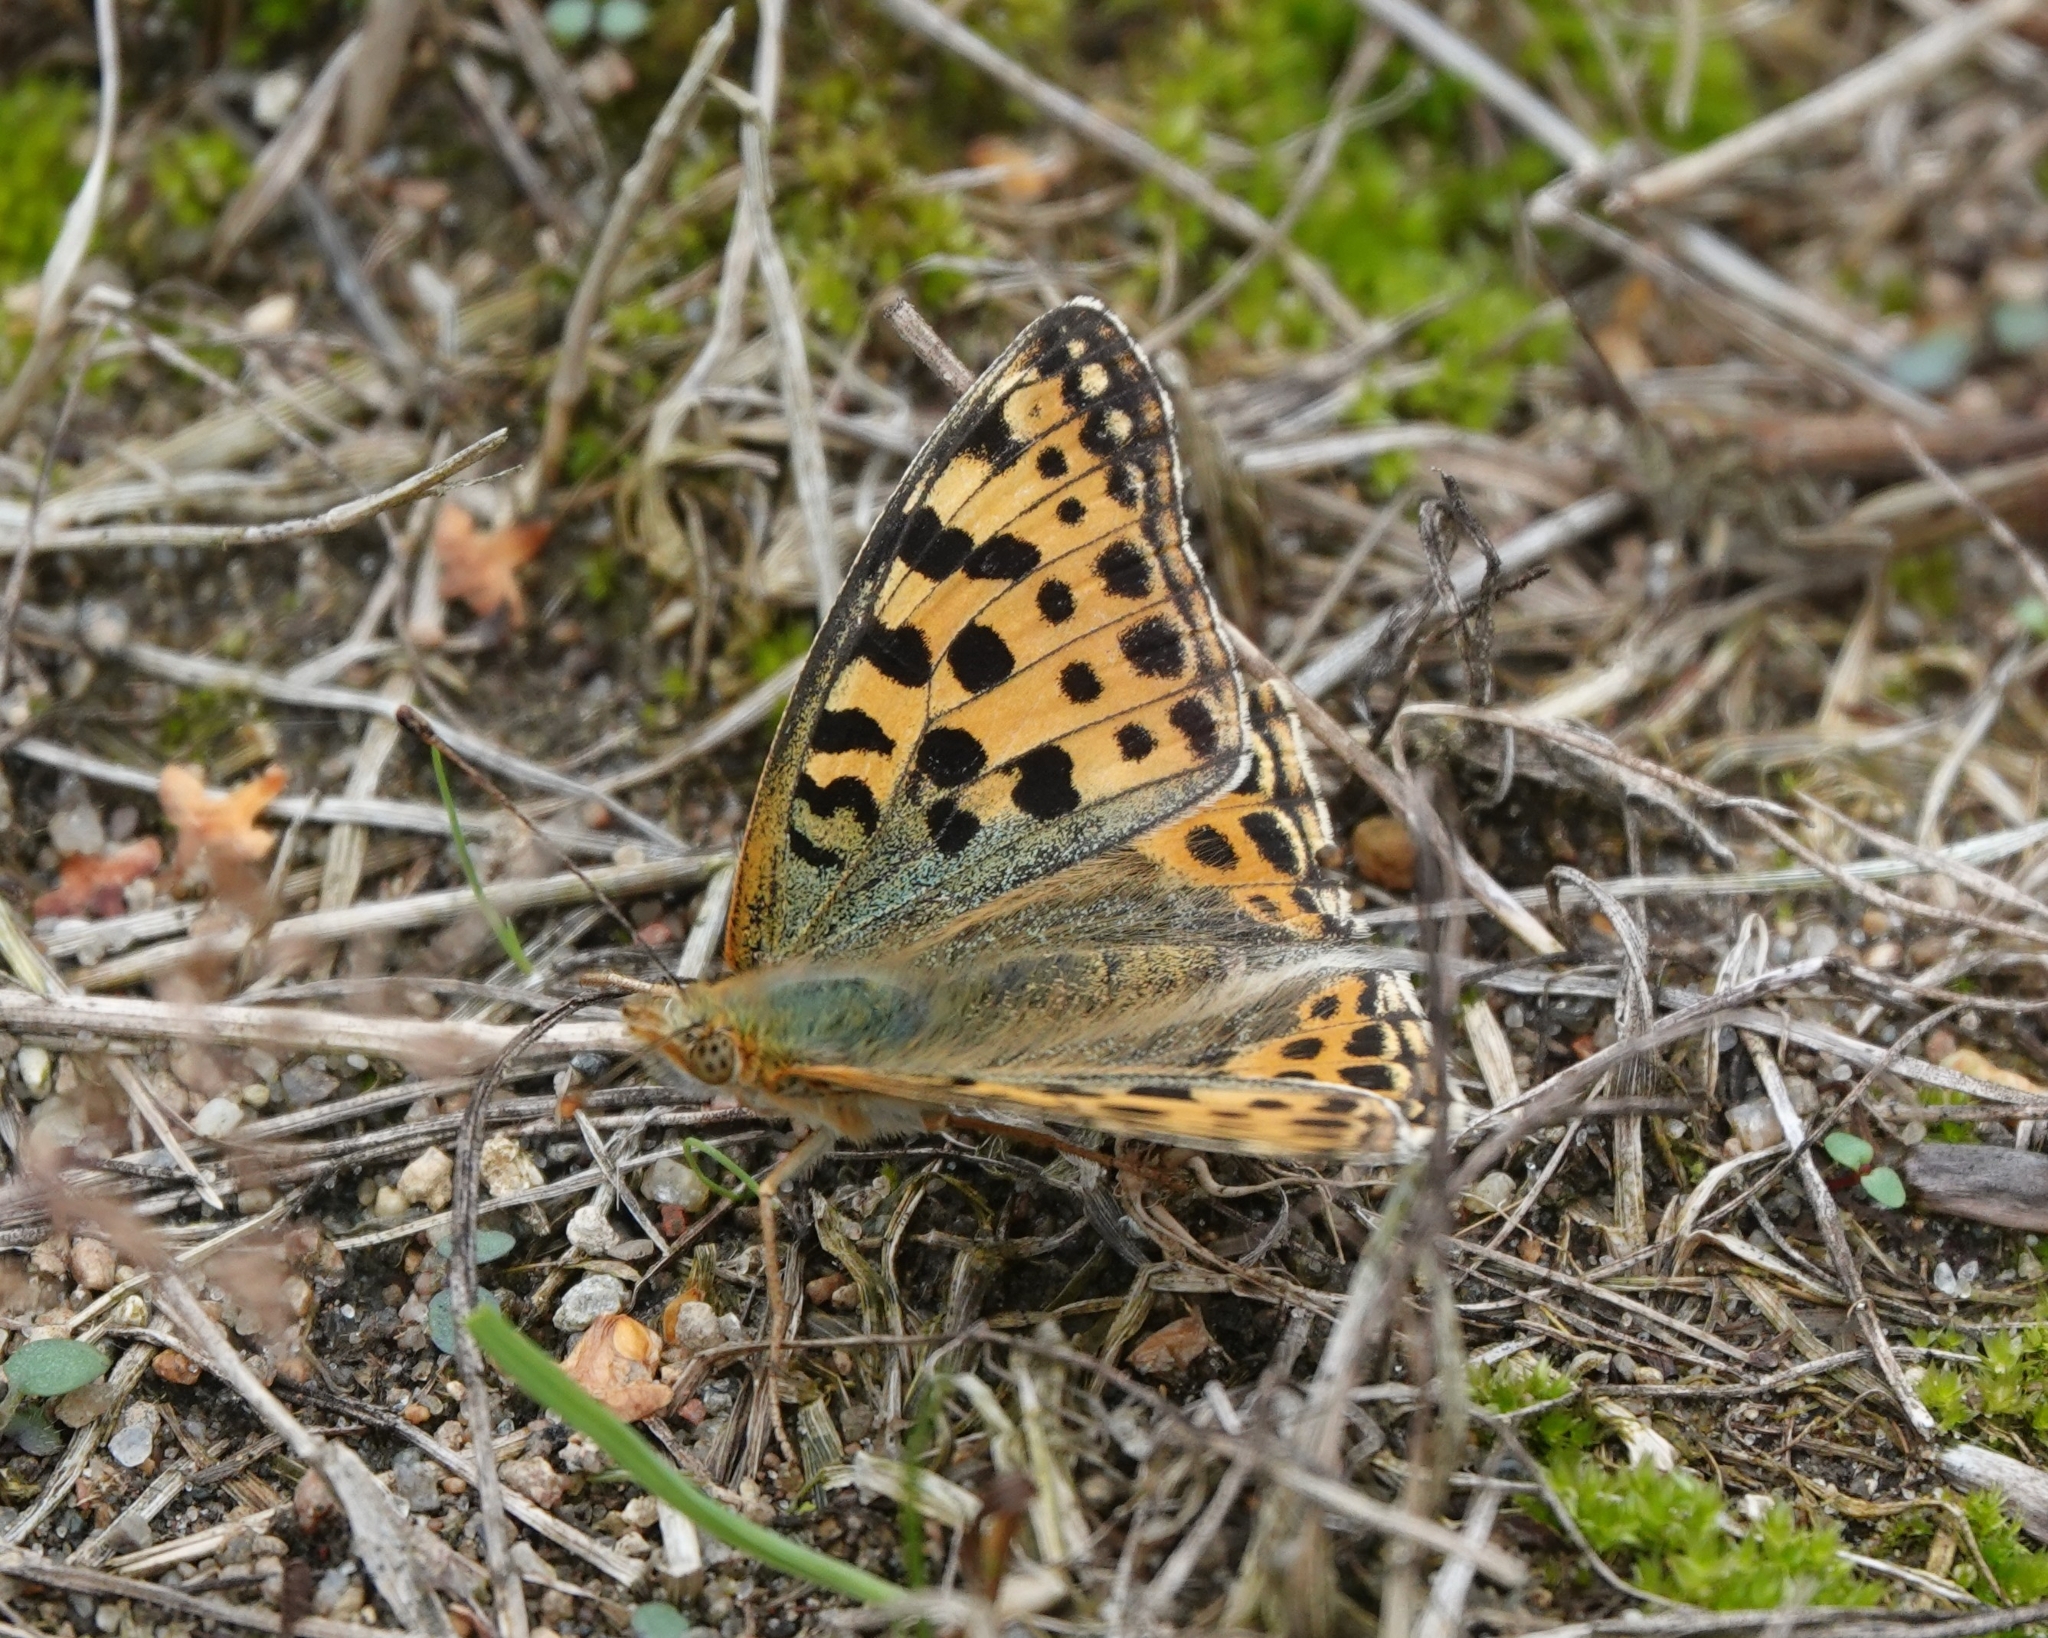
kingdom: Animalia
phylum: Arthropoda
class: Insecta
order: Lepidoptera
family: Nymphalidae
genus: Issoria
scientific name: Issoria lathonia
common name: Queen of spain fritillary
